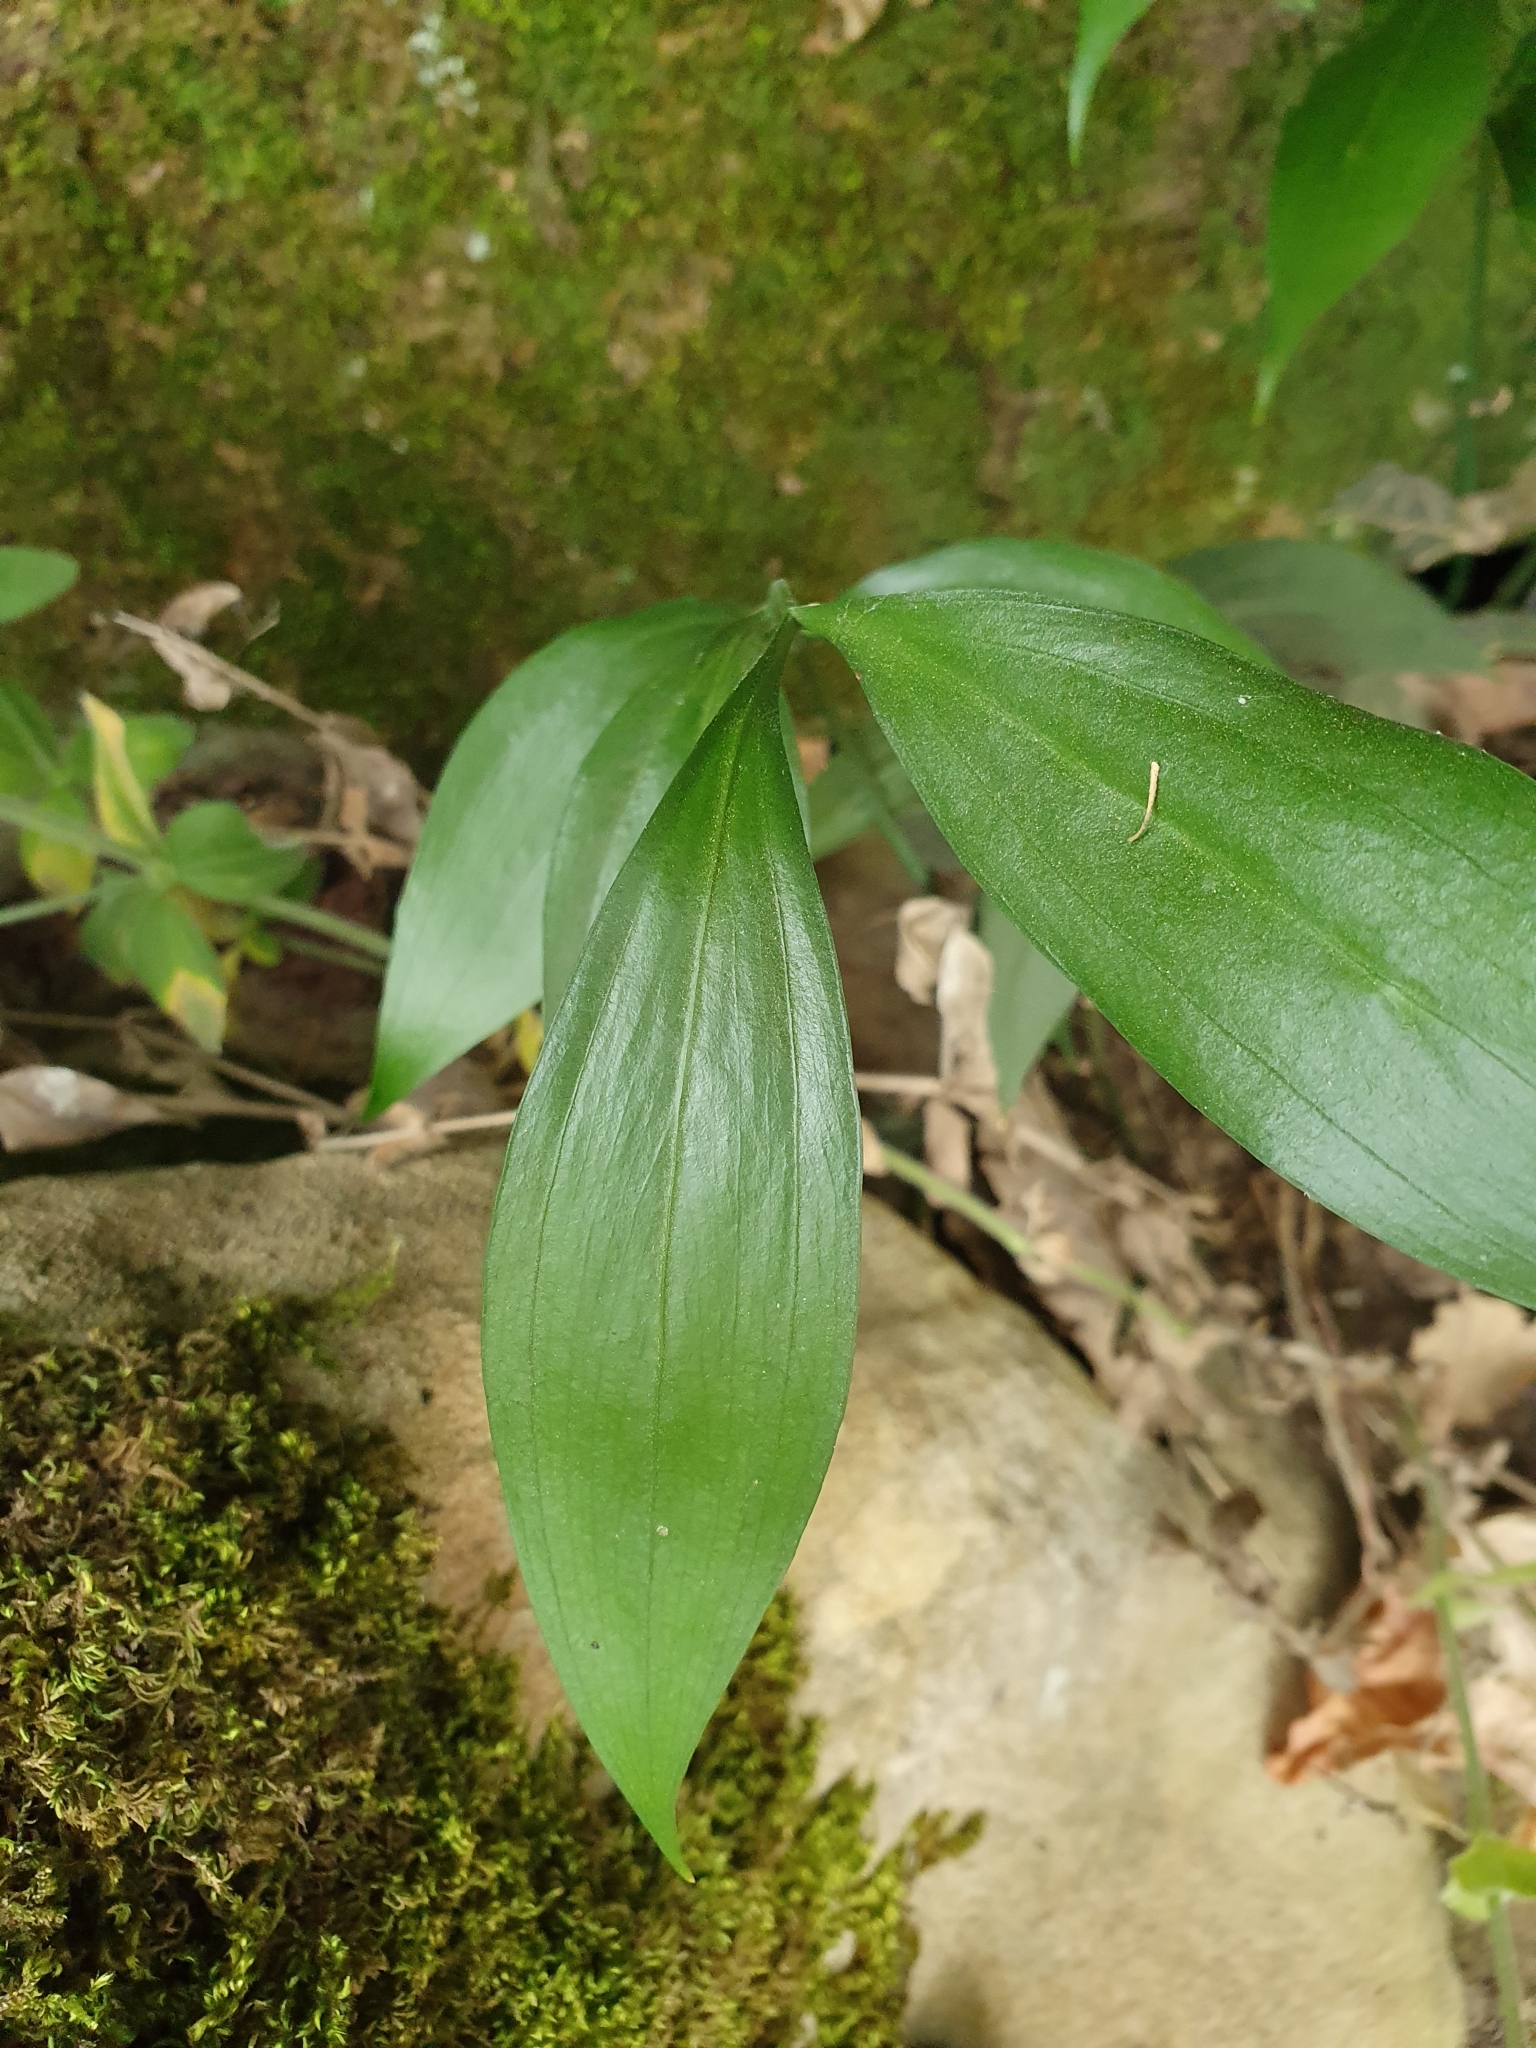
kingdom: Plantae
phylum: Tracheophyta
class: Liliopsida
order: Asparagales
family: Asparagaceae
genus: Ruscus
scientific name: Ruscus hypophyllum
